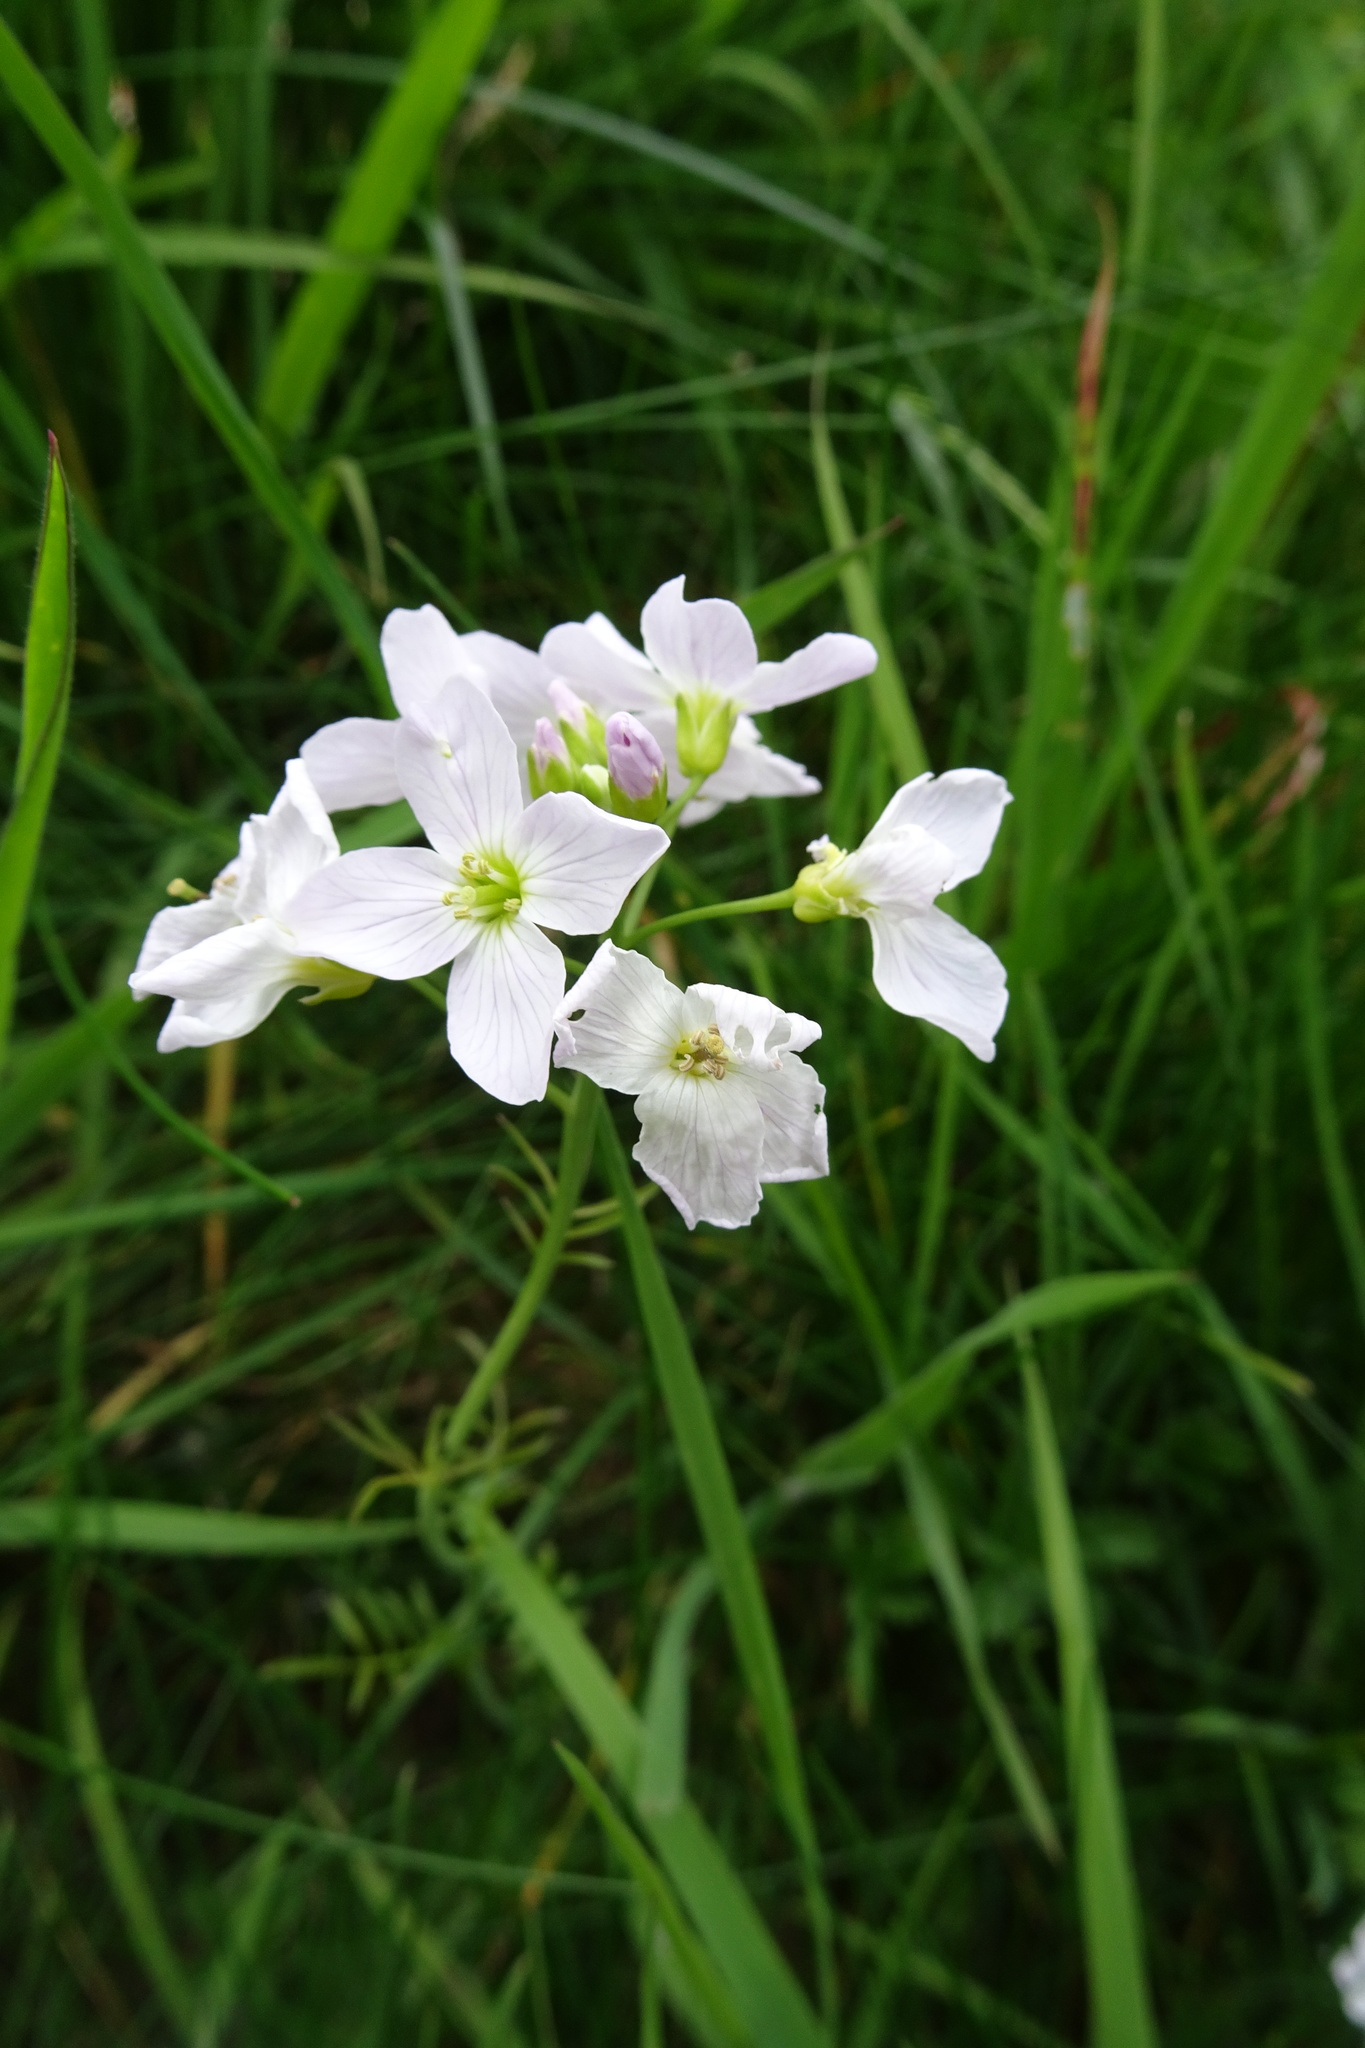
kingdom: Plantae
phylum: Tracheophyta
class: Magnoliopsida
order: Brassicales
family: Brassicaceae
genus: Cardamine
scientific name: Cardamine pratensis
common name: Cuckoo flower
